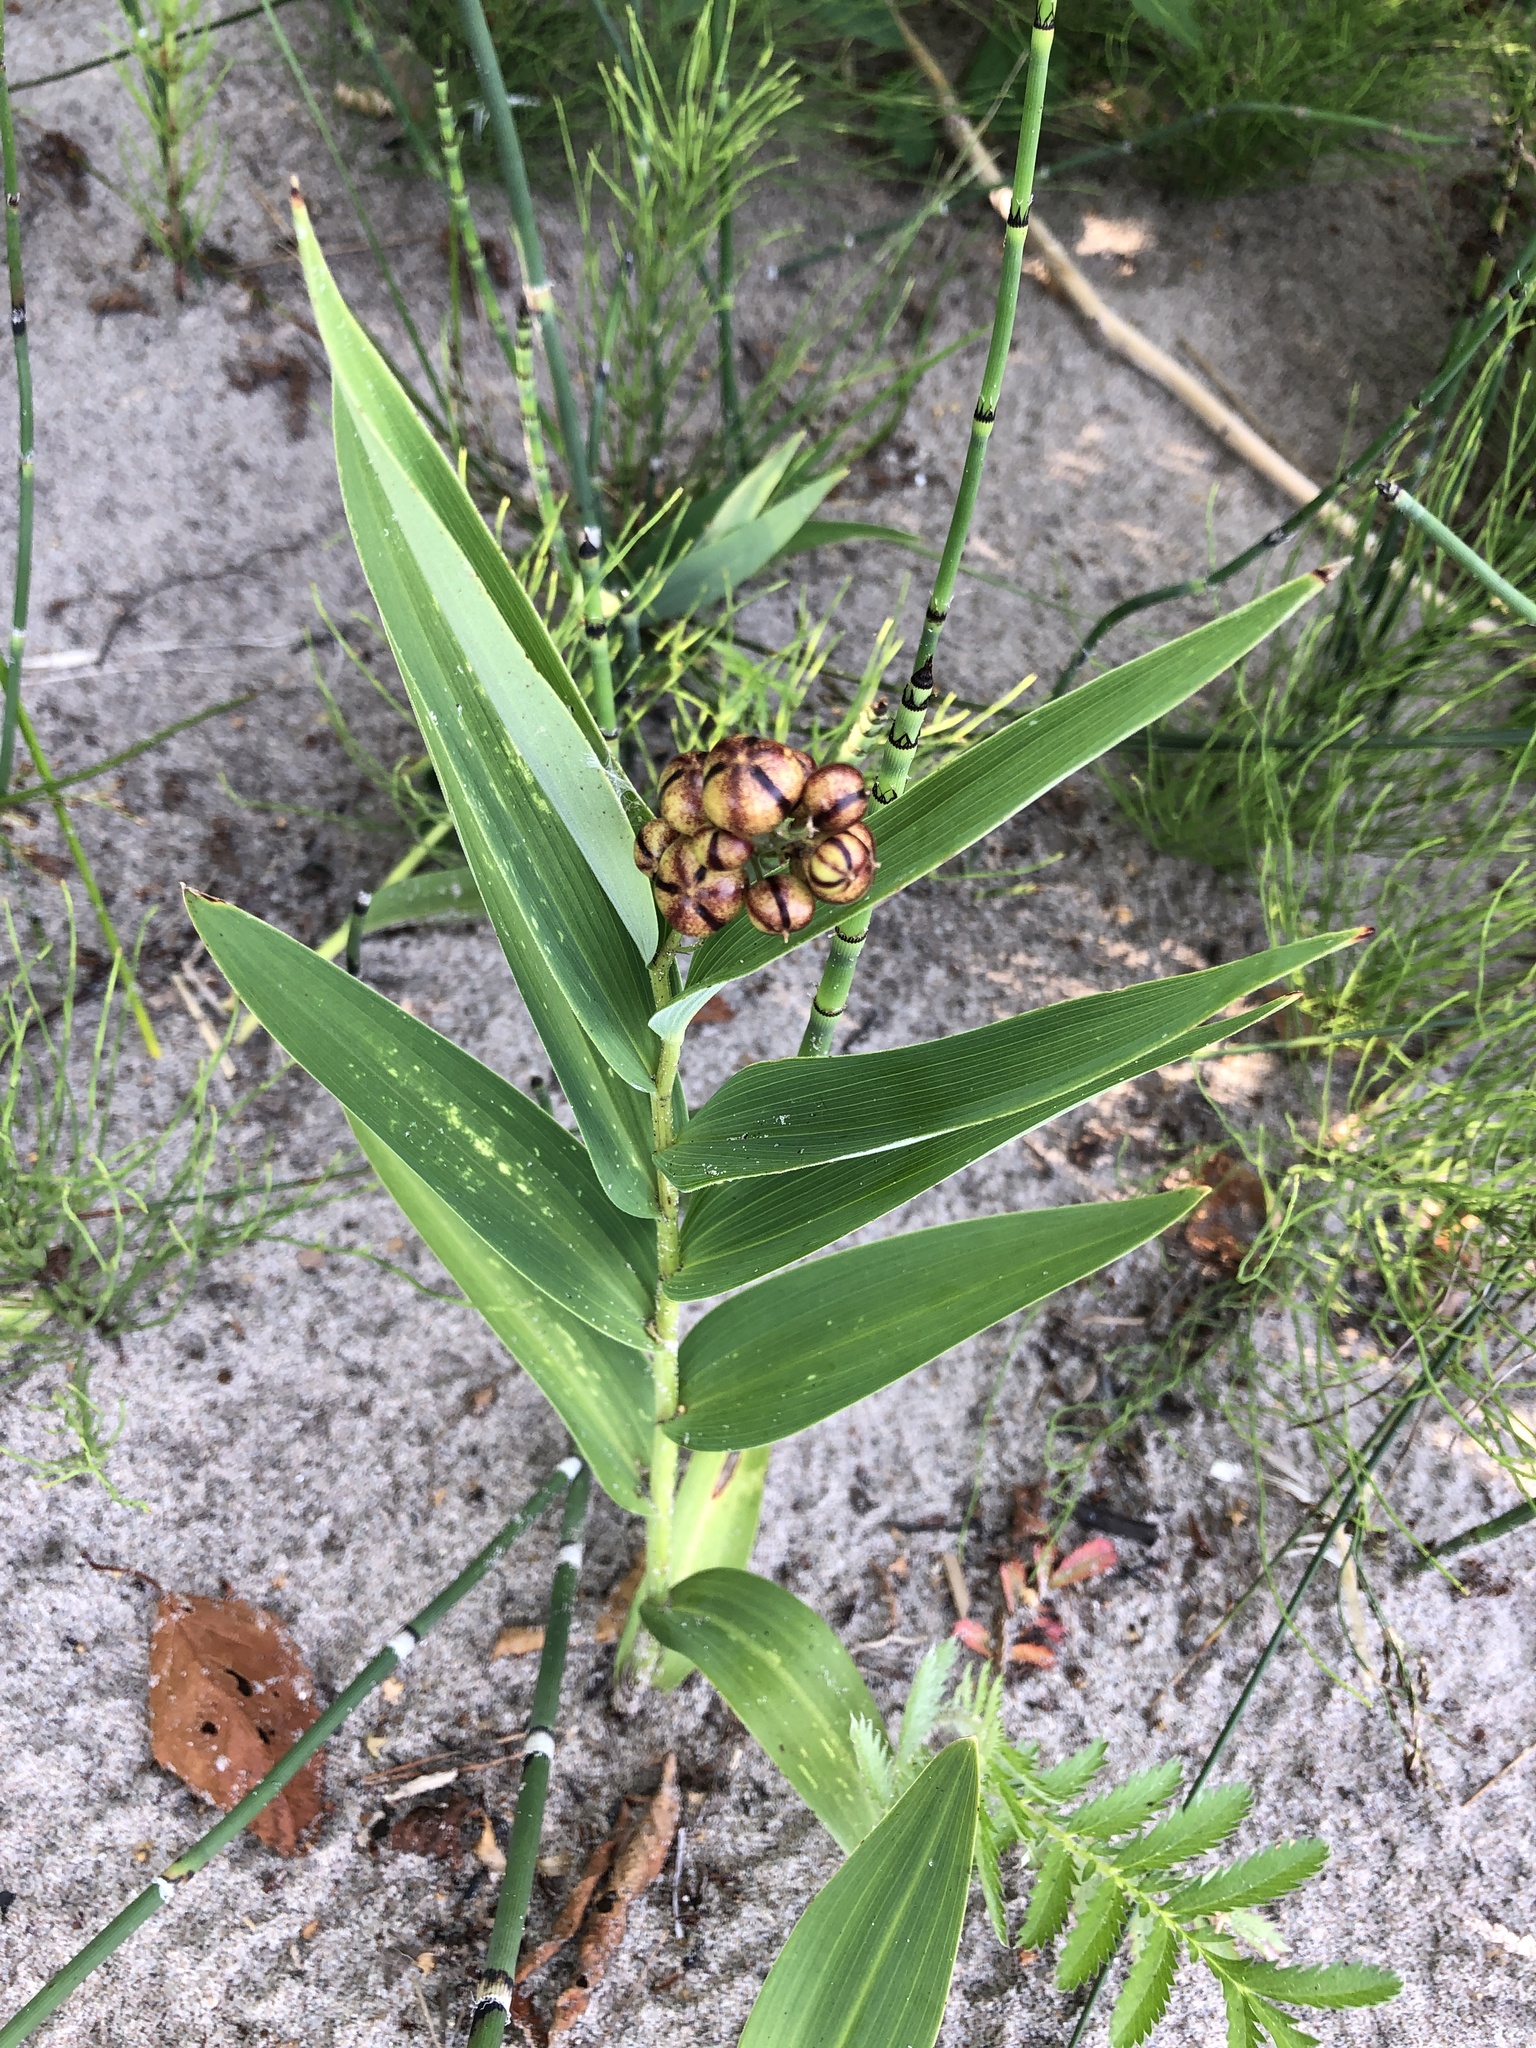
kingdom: Plantae
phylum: Tracheophyta
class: Liliopsida
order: Asparagales
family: Asparagaceae
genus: Maianthemum
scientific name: Maianthemum stellatum
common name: Little false solomon's seal
